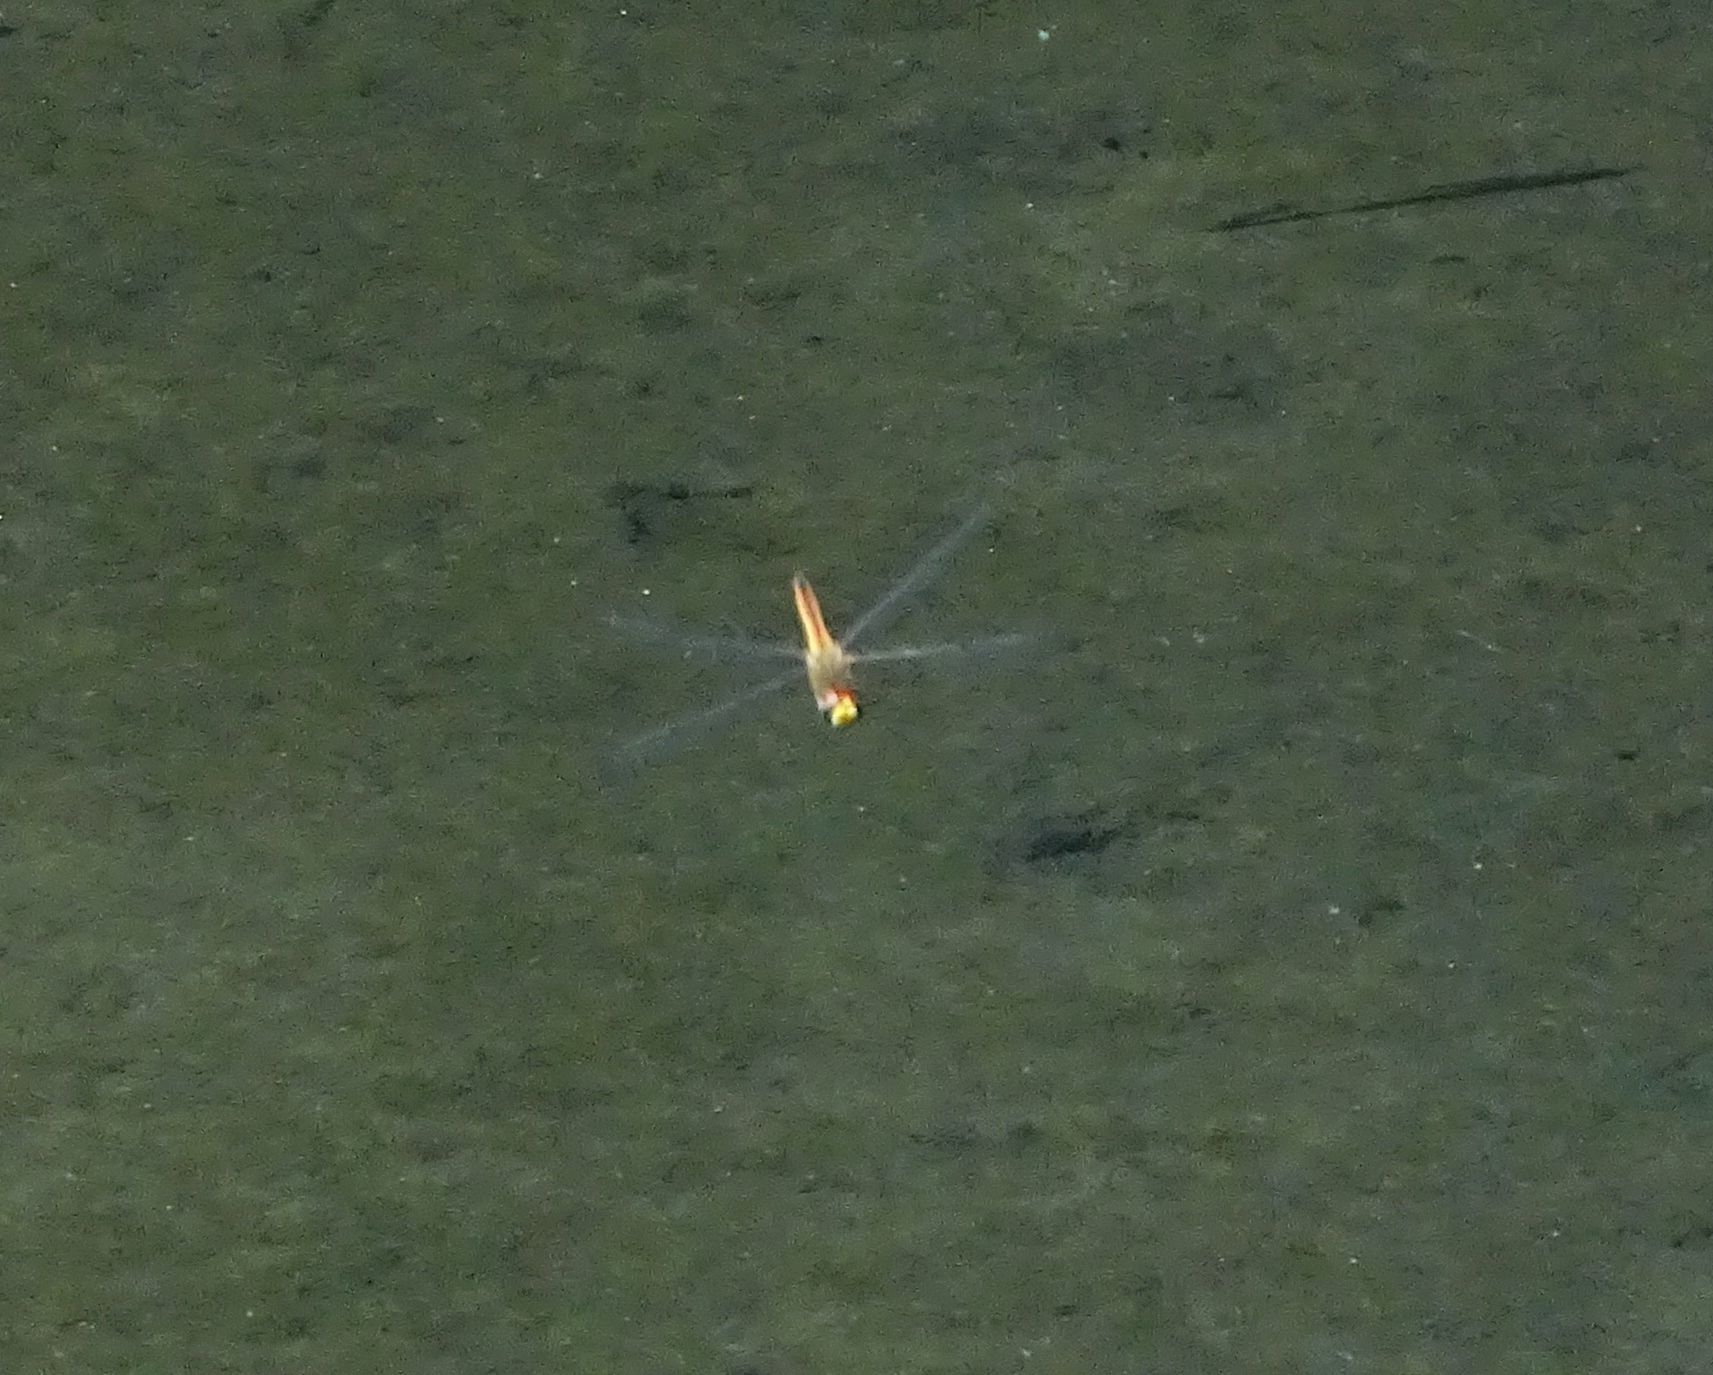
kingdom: Animalia
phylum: Arthropoda
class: Insecta
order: Odonata
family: Libellulidae
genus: Pantala
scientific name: Pantala flavescens
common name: Wandering glider
